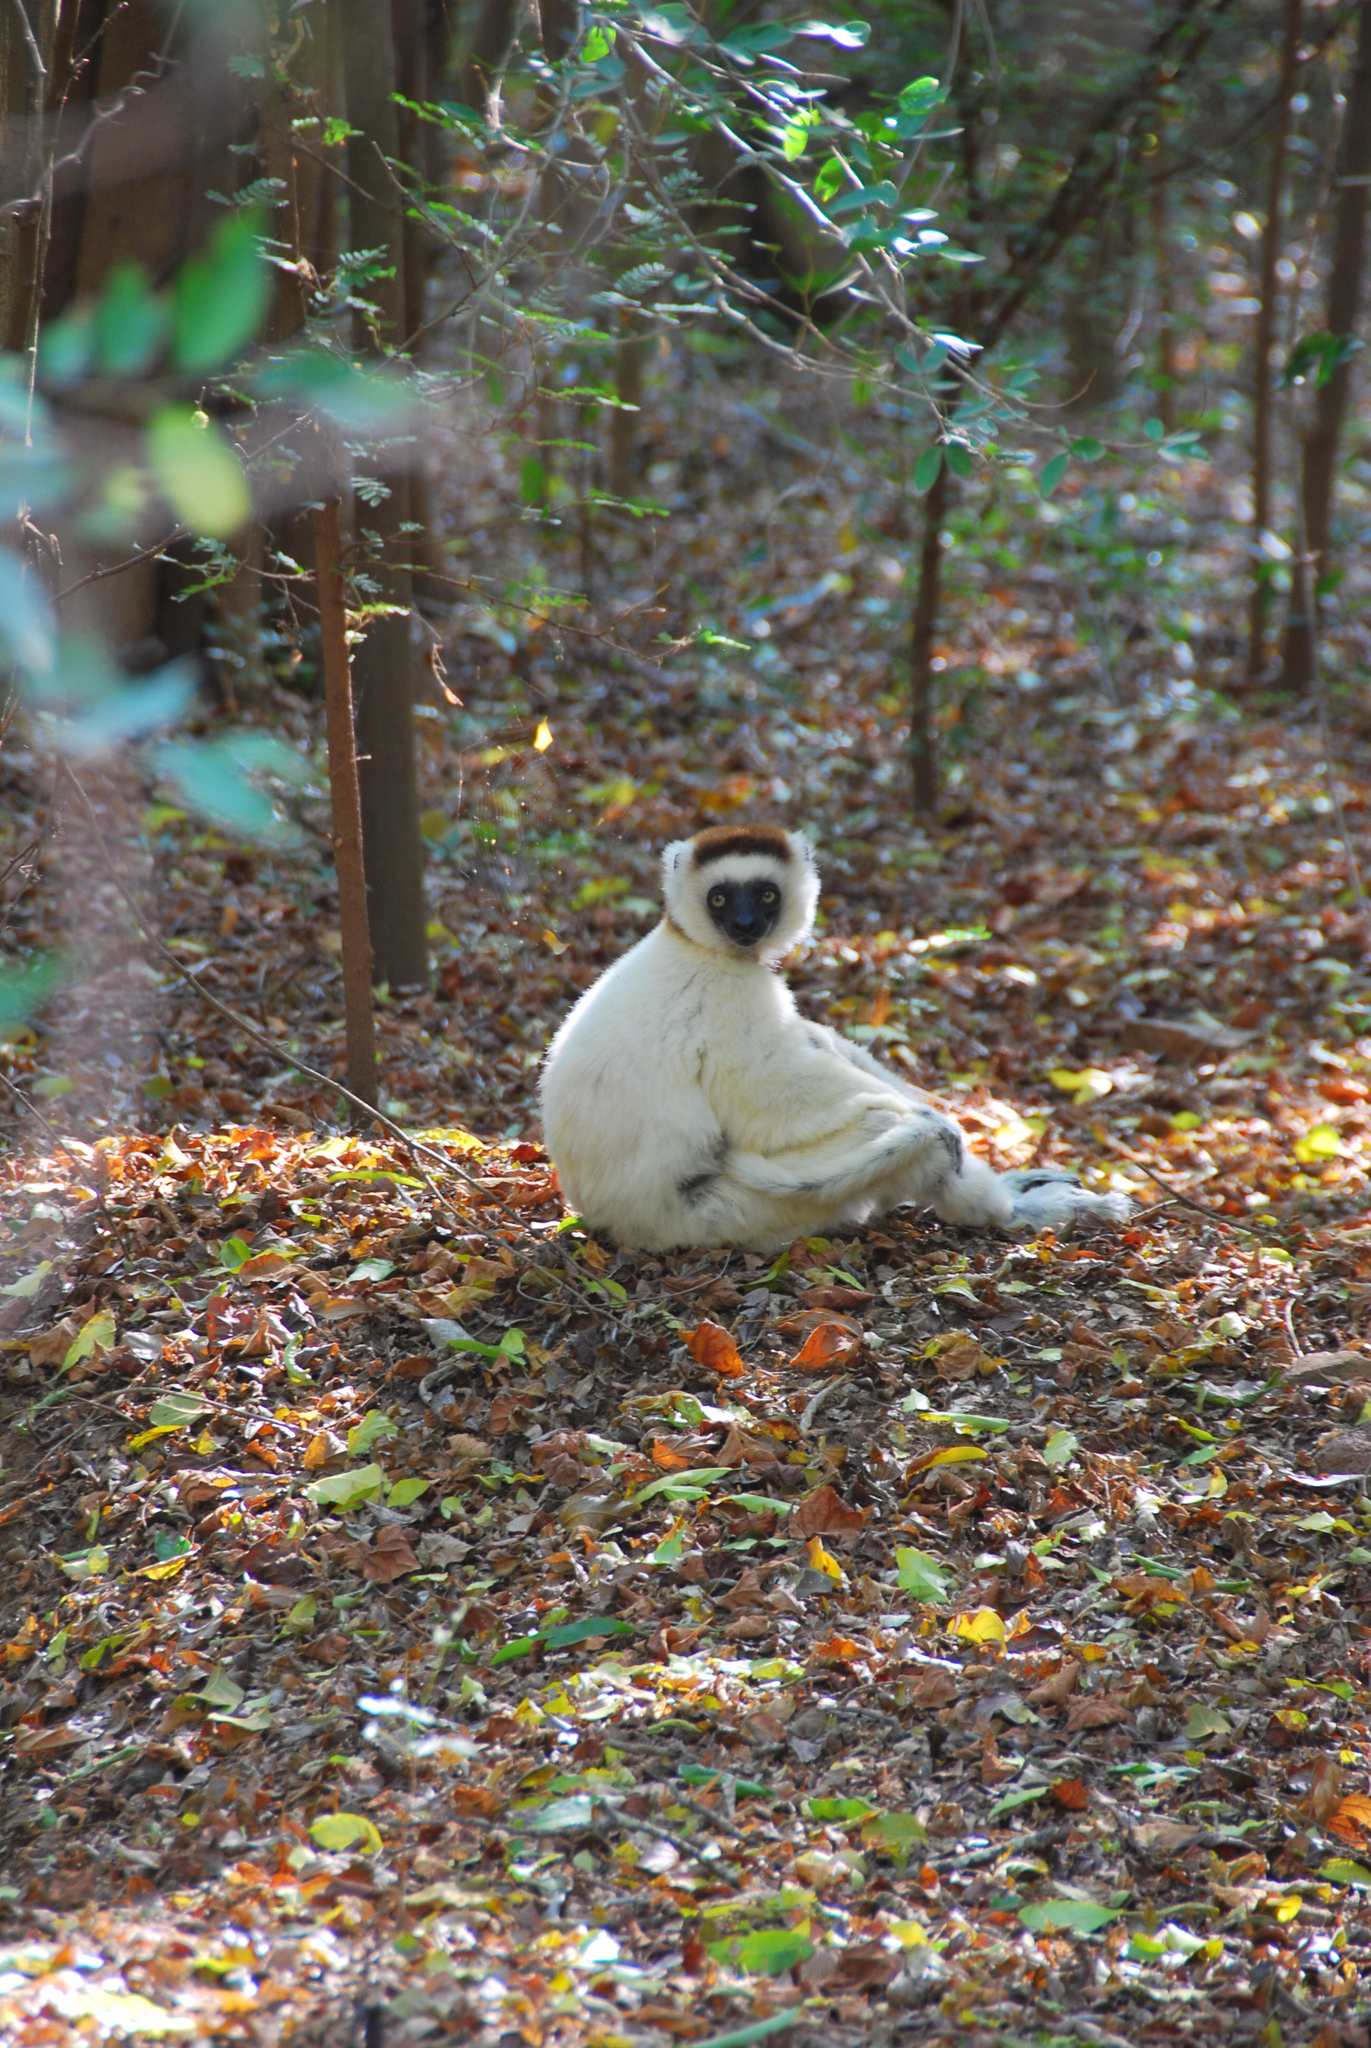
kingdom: Animalia
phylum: Chordata
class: Mammalia
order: Primates
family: Indriidae
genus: Propithecus
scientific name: Propithecus verreauxi
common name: Verreaux's sifaka
